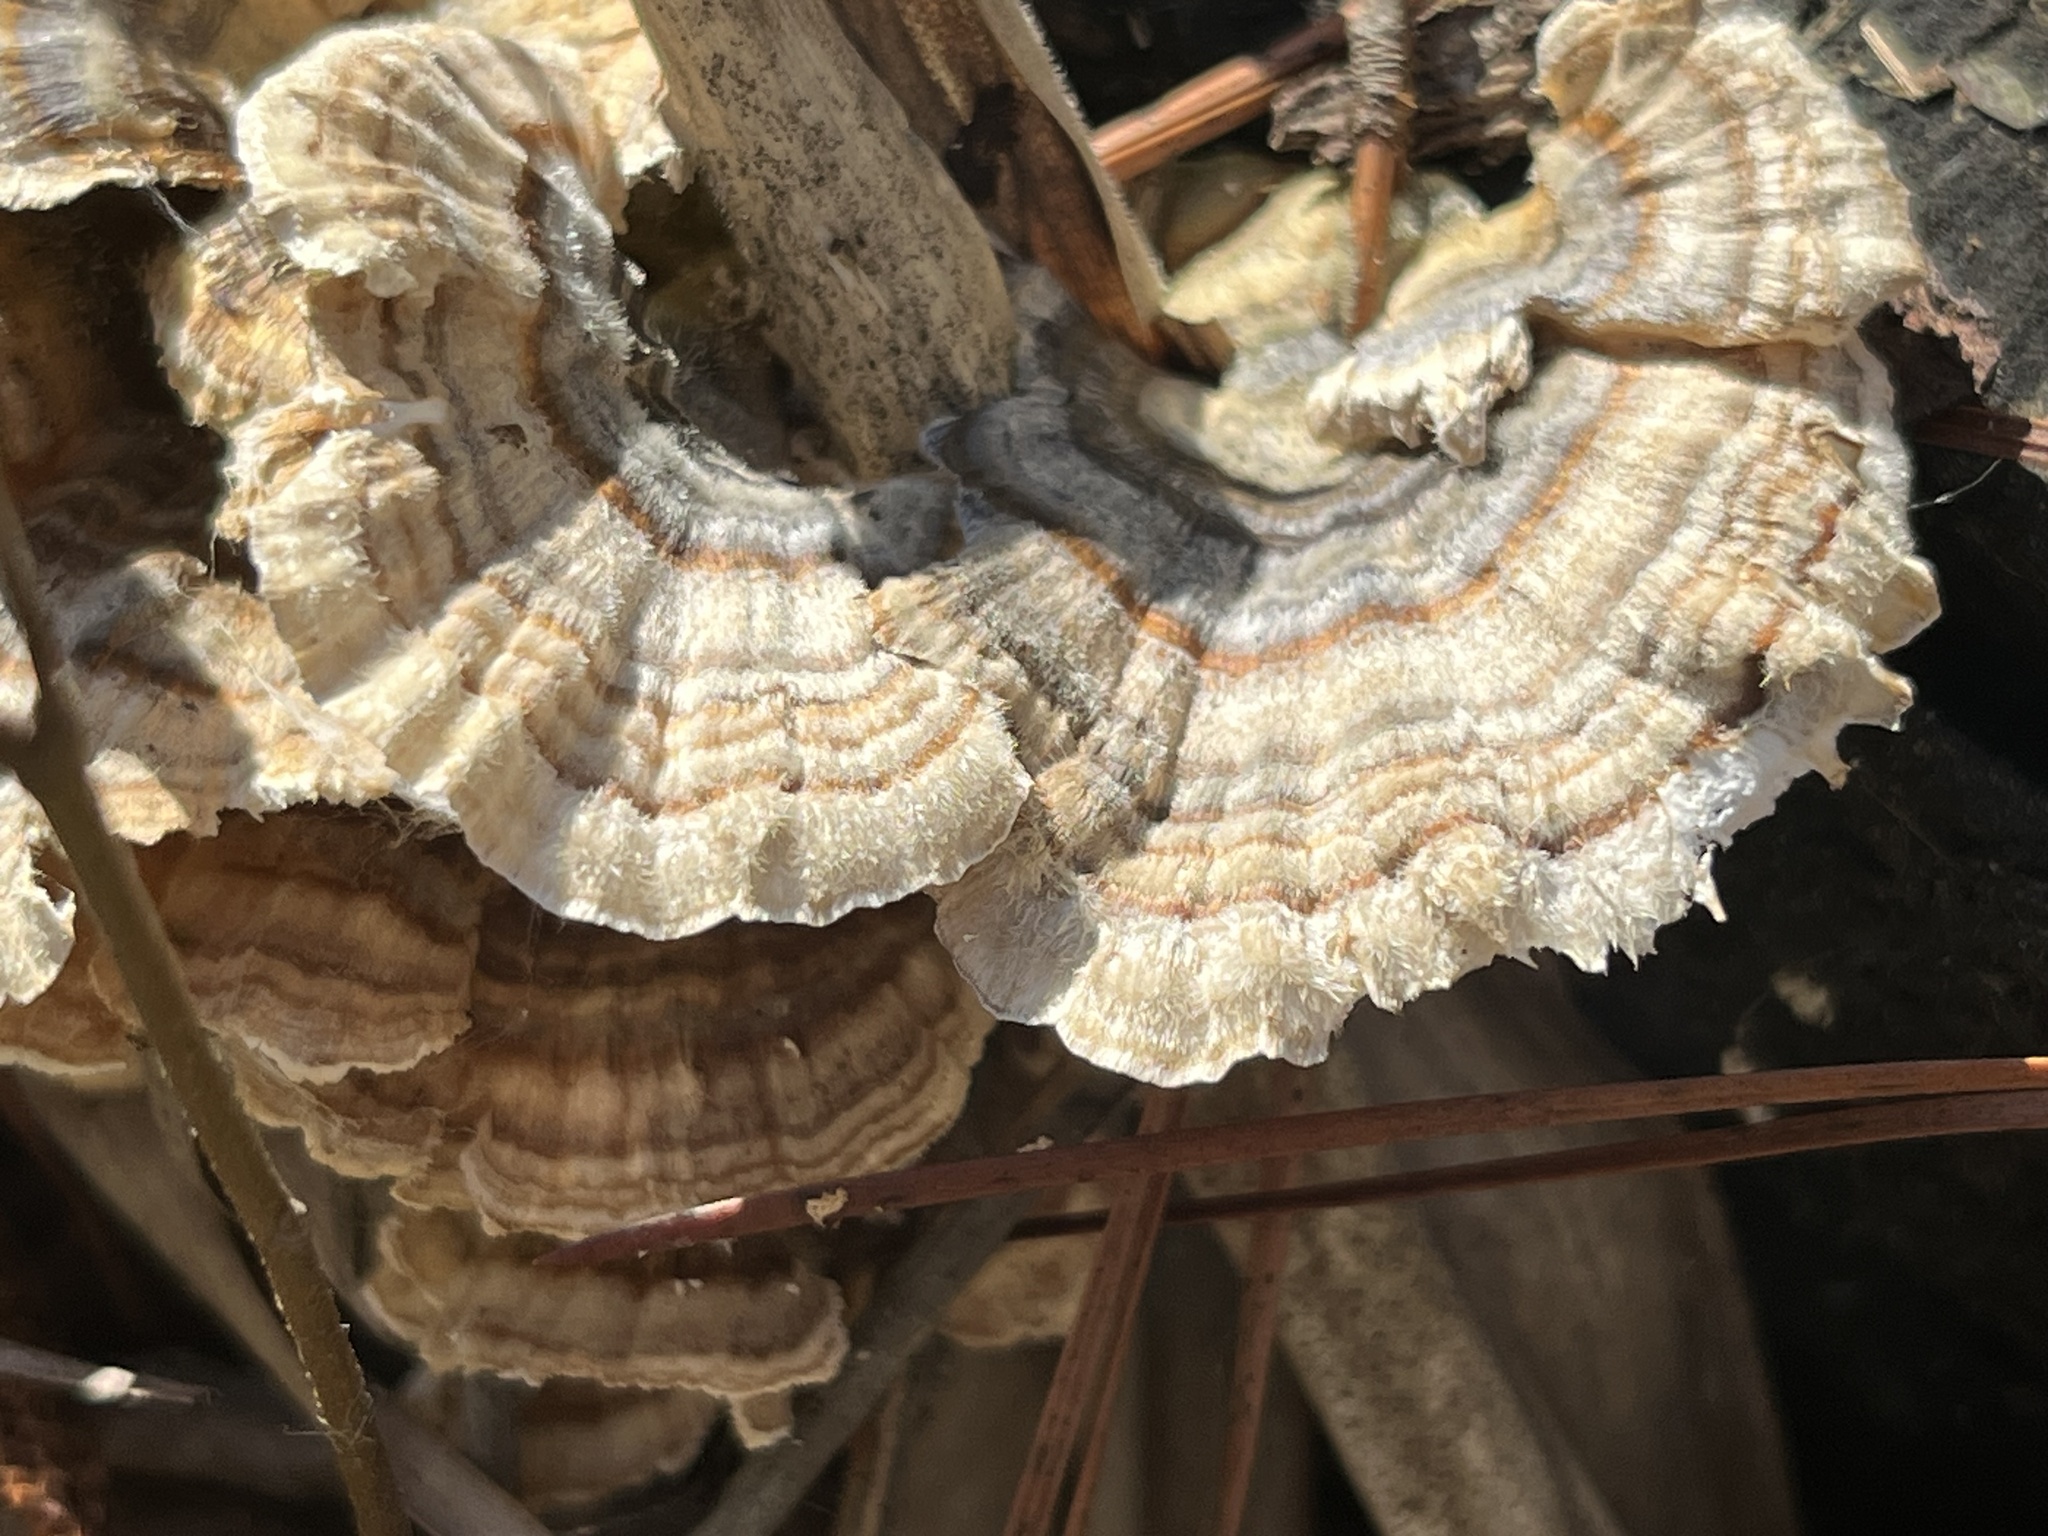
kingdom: Fungi
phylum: Basidiomycota
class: Agaricomycetes
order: Polyporales
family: Polyporaceae
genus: Trametes
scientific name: Trametes versicolor
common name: Turkeytail
